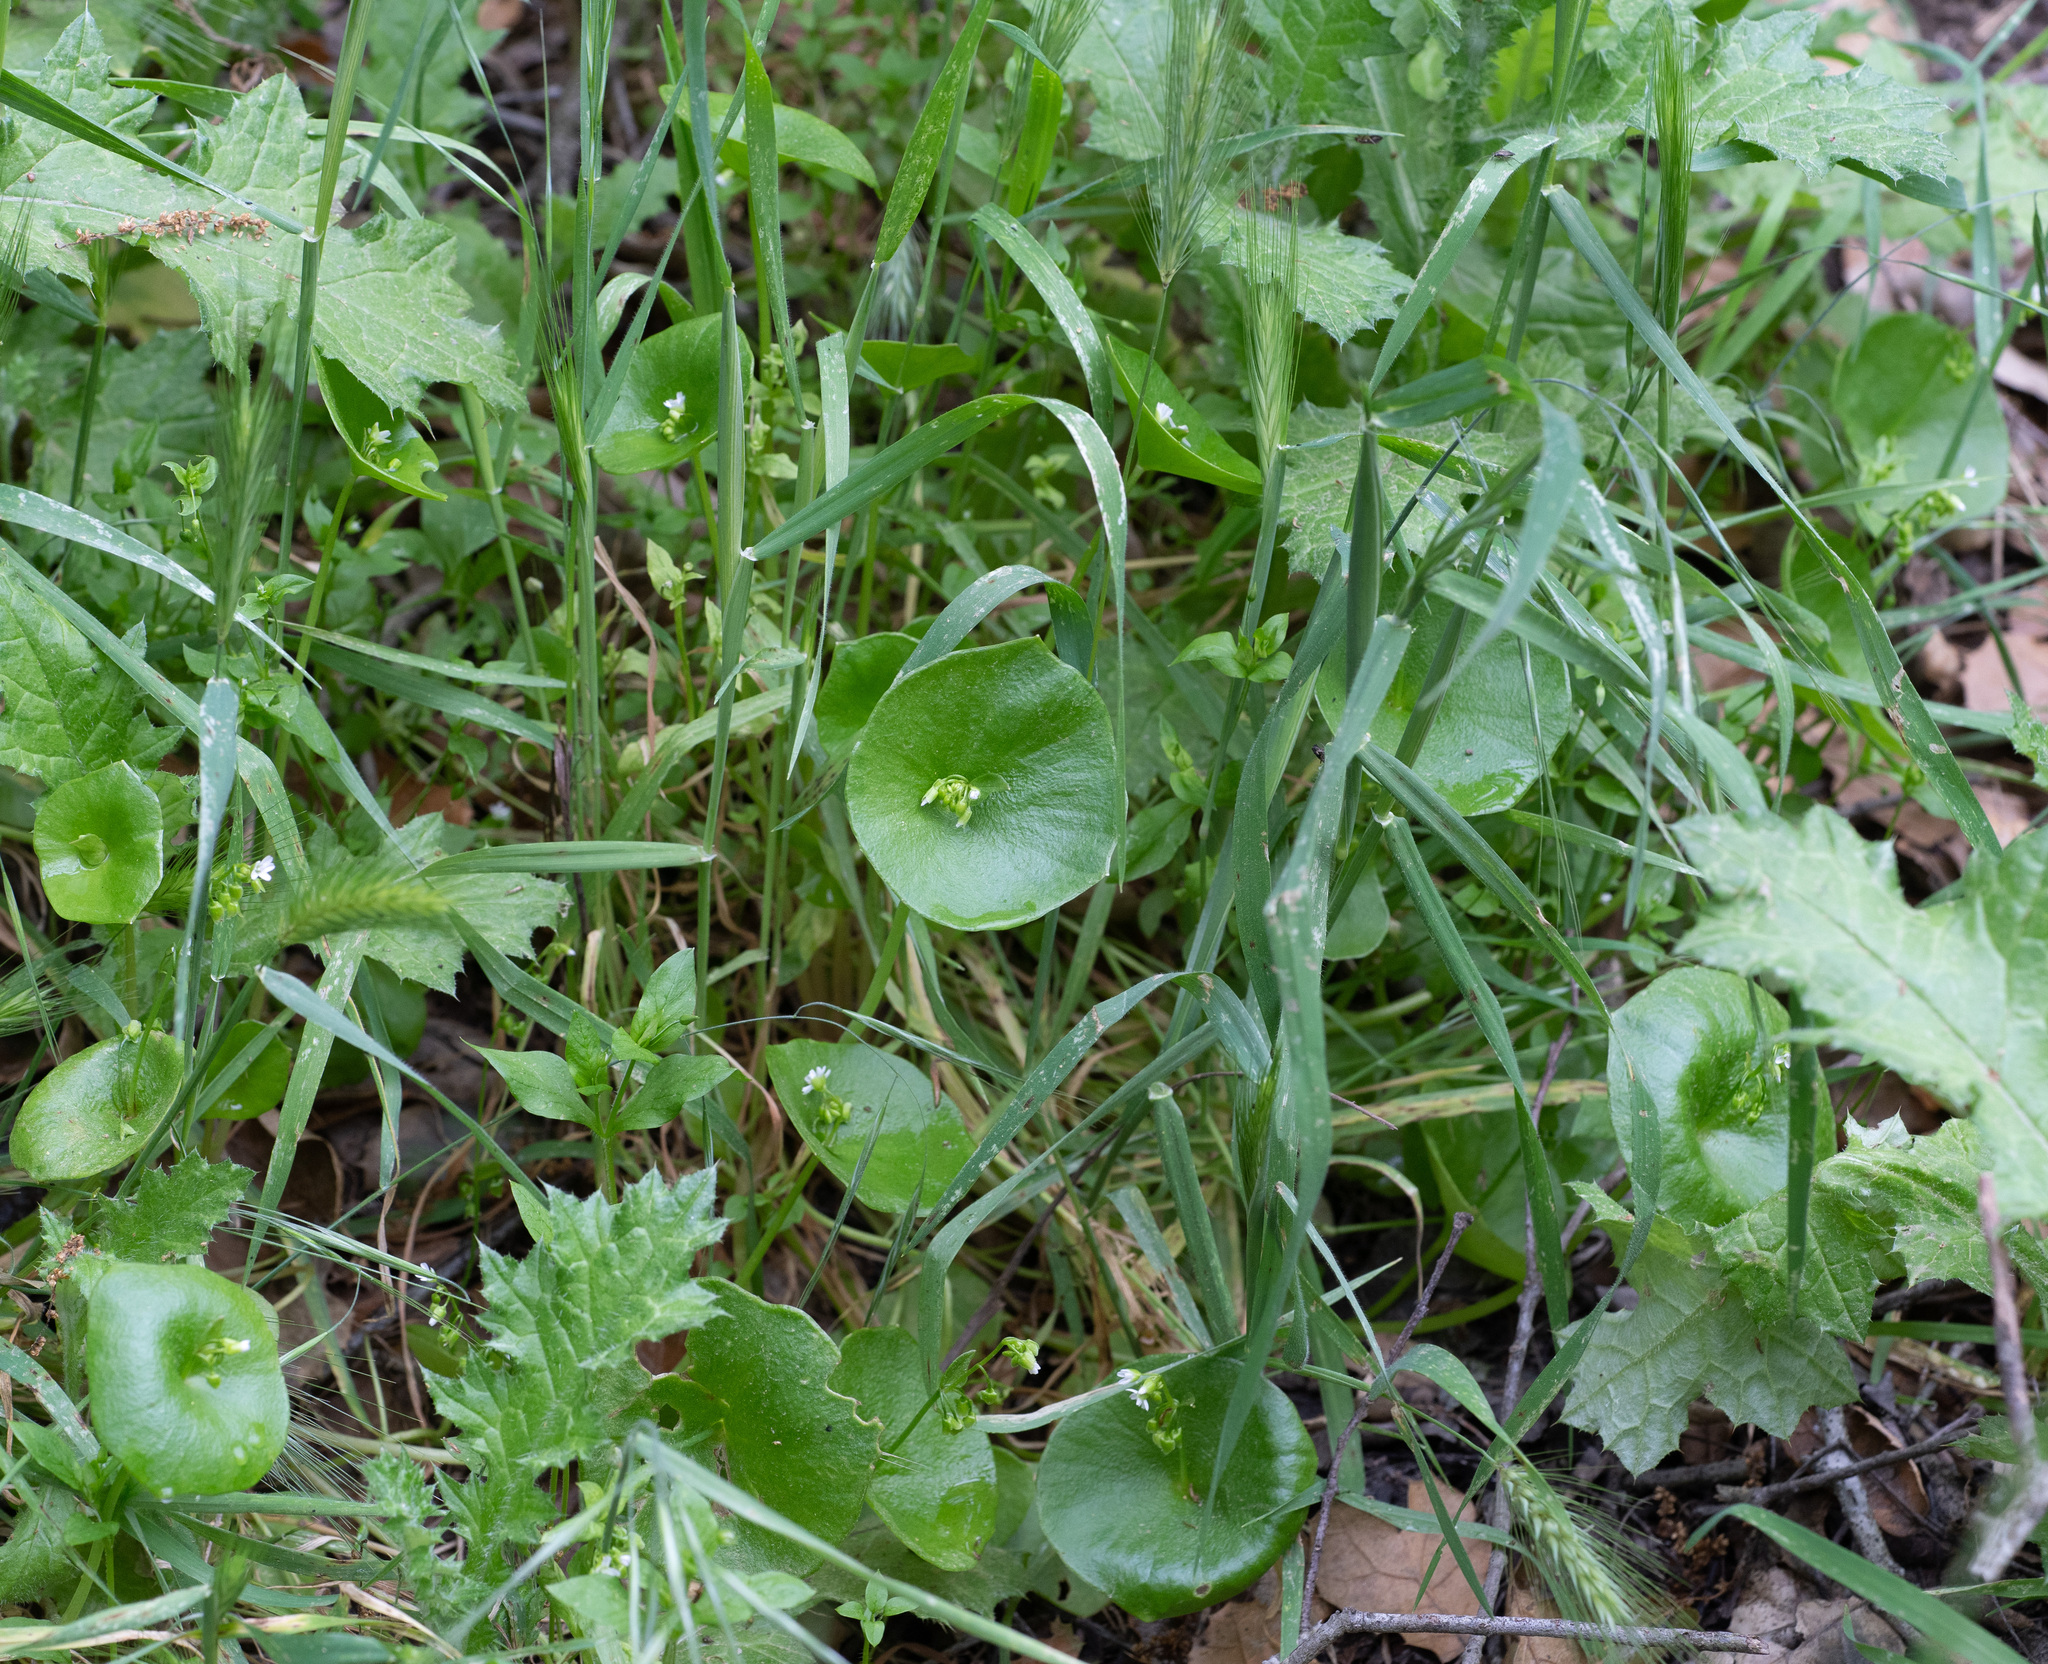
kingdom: Plantae
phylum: Tracheophyta
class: Magnoliopsida
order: Caryophyllales
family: Montiaceae
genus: Claytonia
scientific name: Claytonia perfoliata
